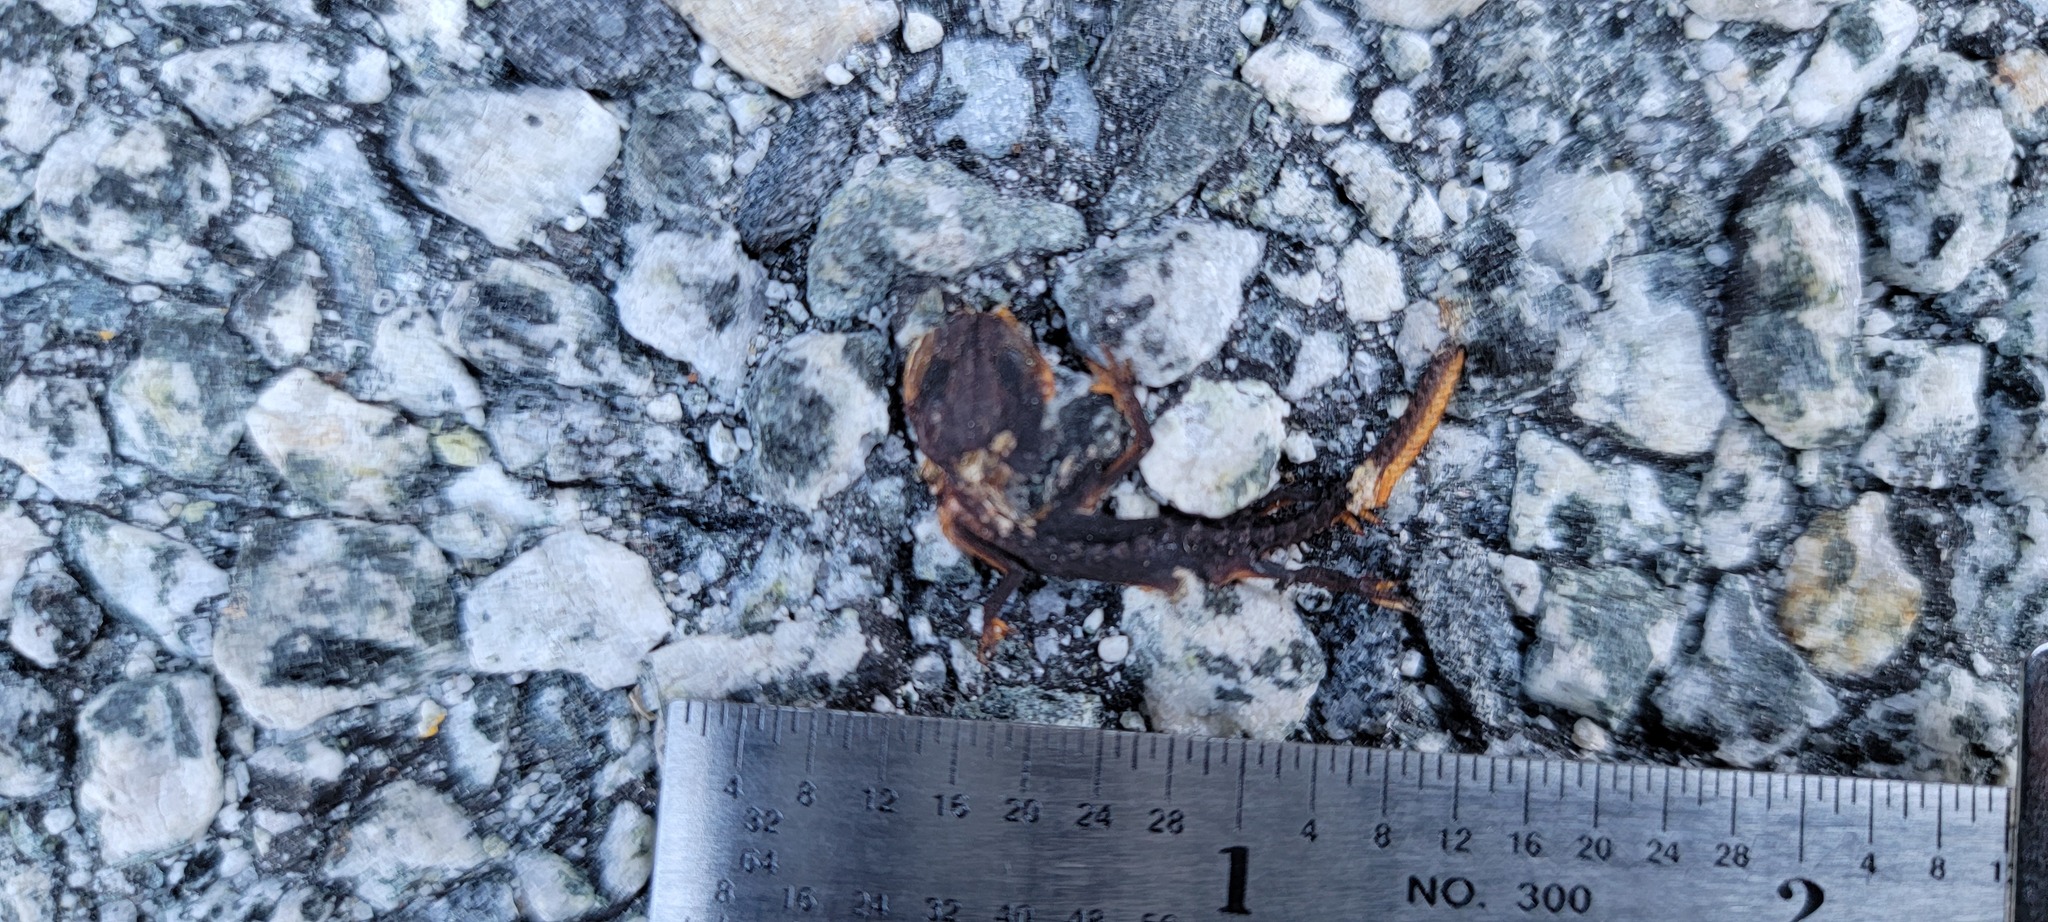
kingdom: Animalia
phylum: Chordata
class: Amphibia
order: Caudata
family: Salamandridae
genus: Taricha
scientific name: Taricha
